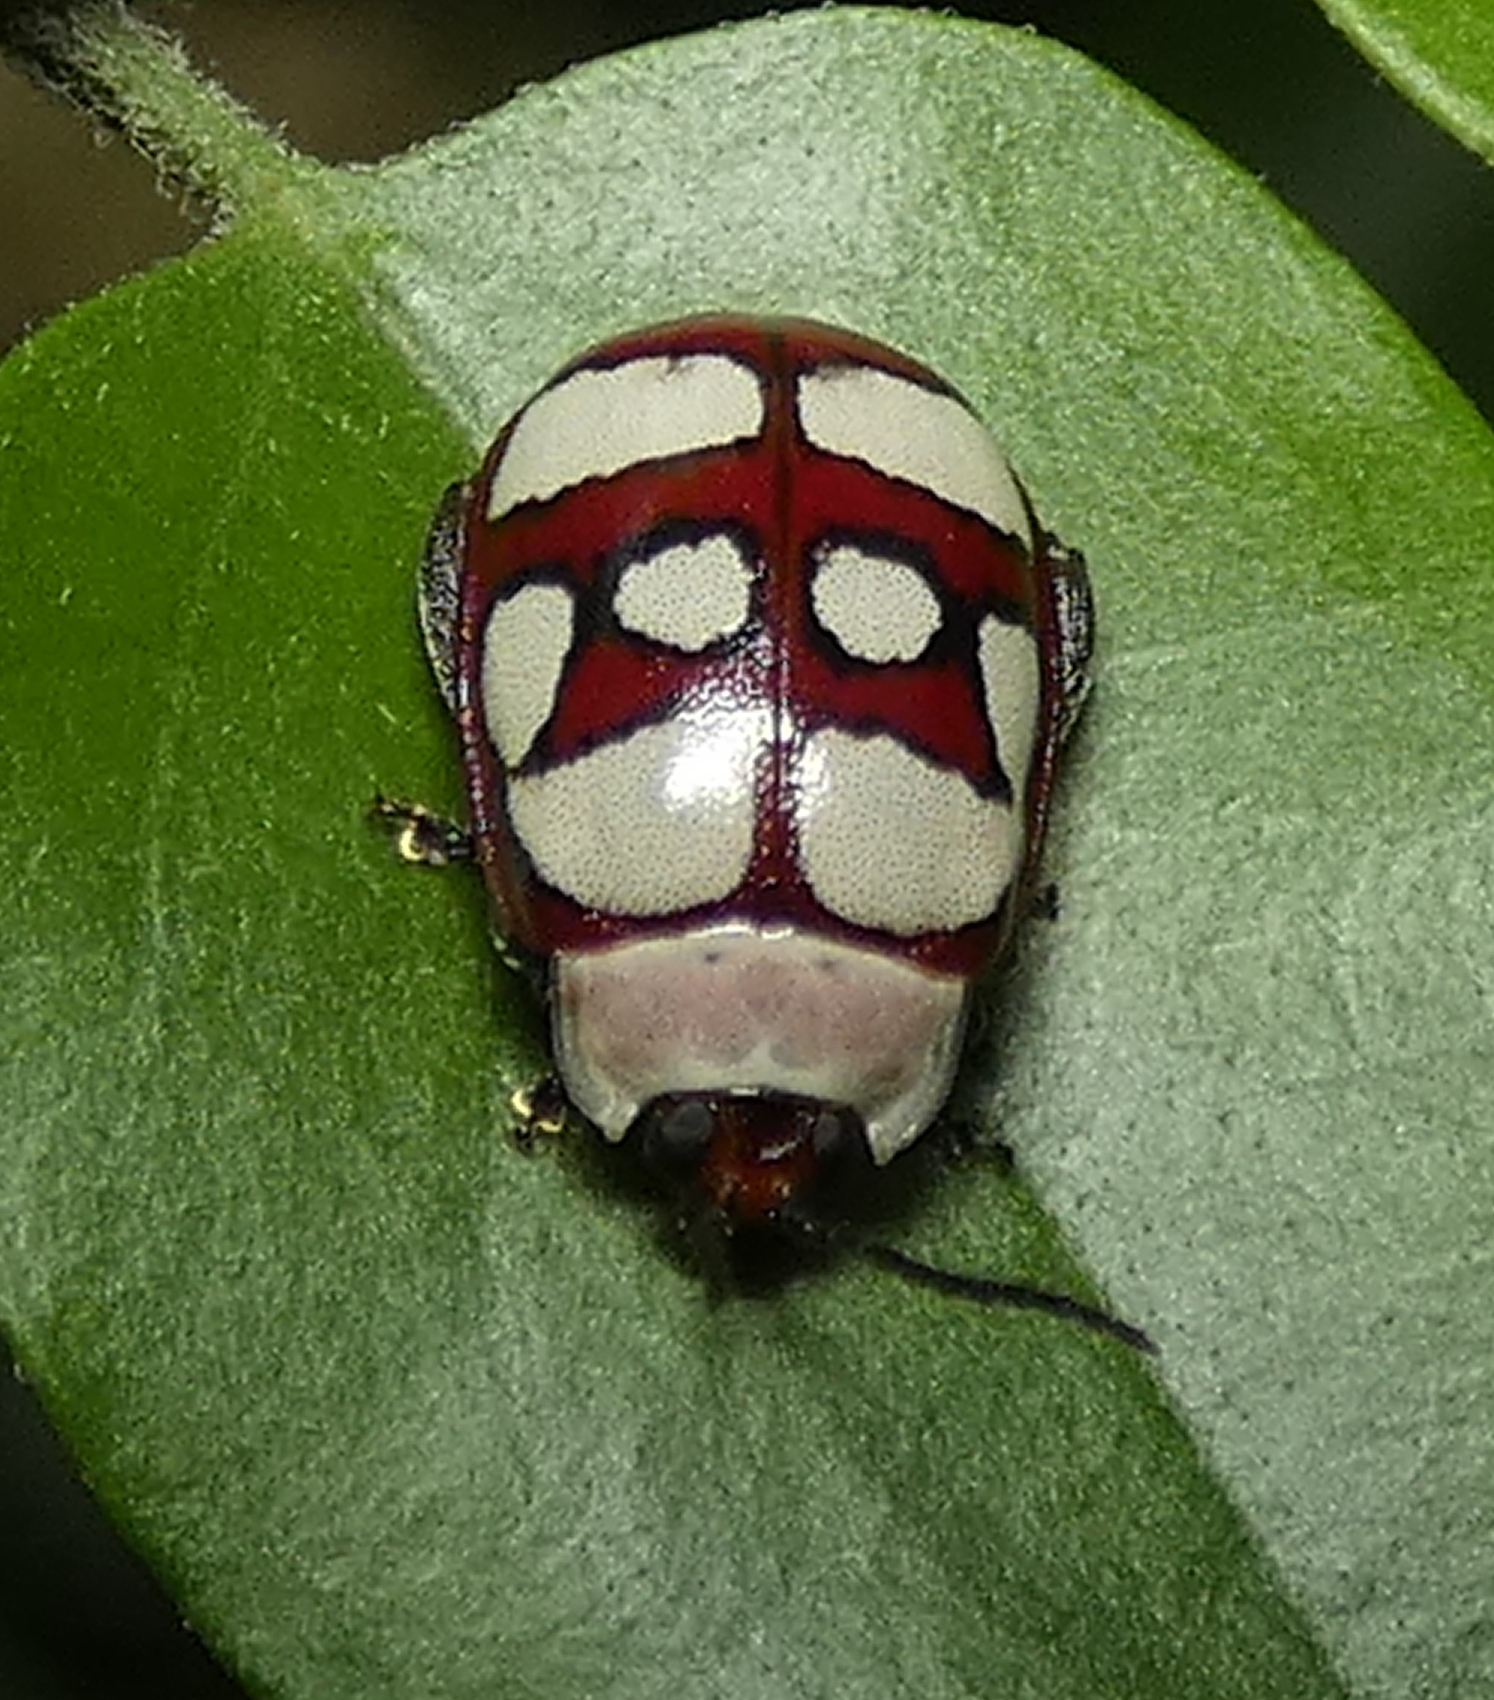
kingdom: Animalia
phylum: Arthropoda
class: Insecta
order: Coleoptera
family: Chrysomelidae
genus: Alagoasa
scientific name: Alagoasa decemguttata
